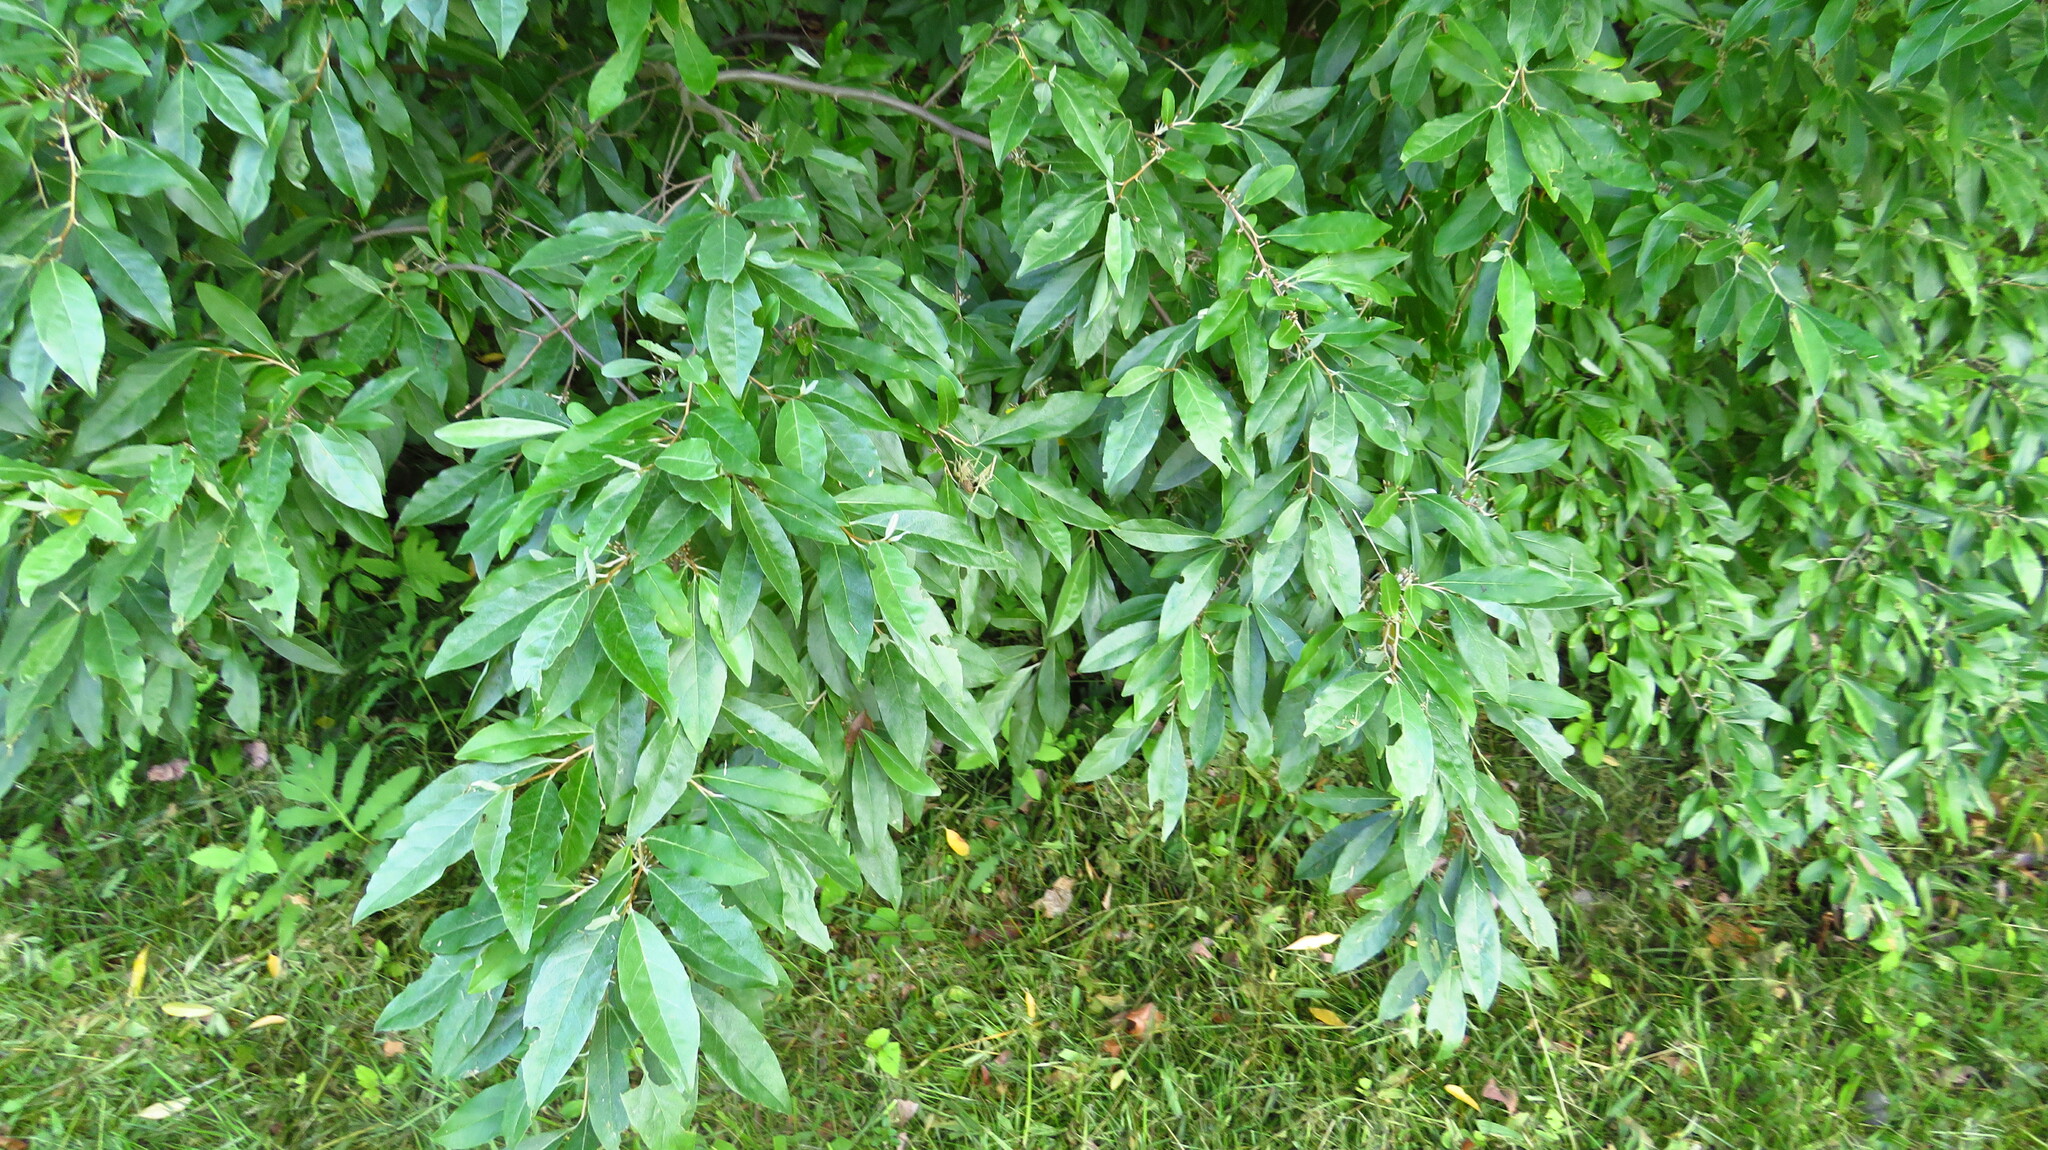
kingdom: Plantae
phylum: Tracheophyta
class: Magnoliopsida
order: Rosales
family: Elaeagnaceae
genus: Elaeagnus
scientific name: Elaeagnus umbellata
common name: Autumn olive
